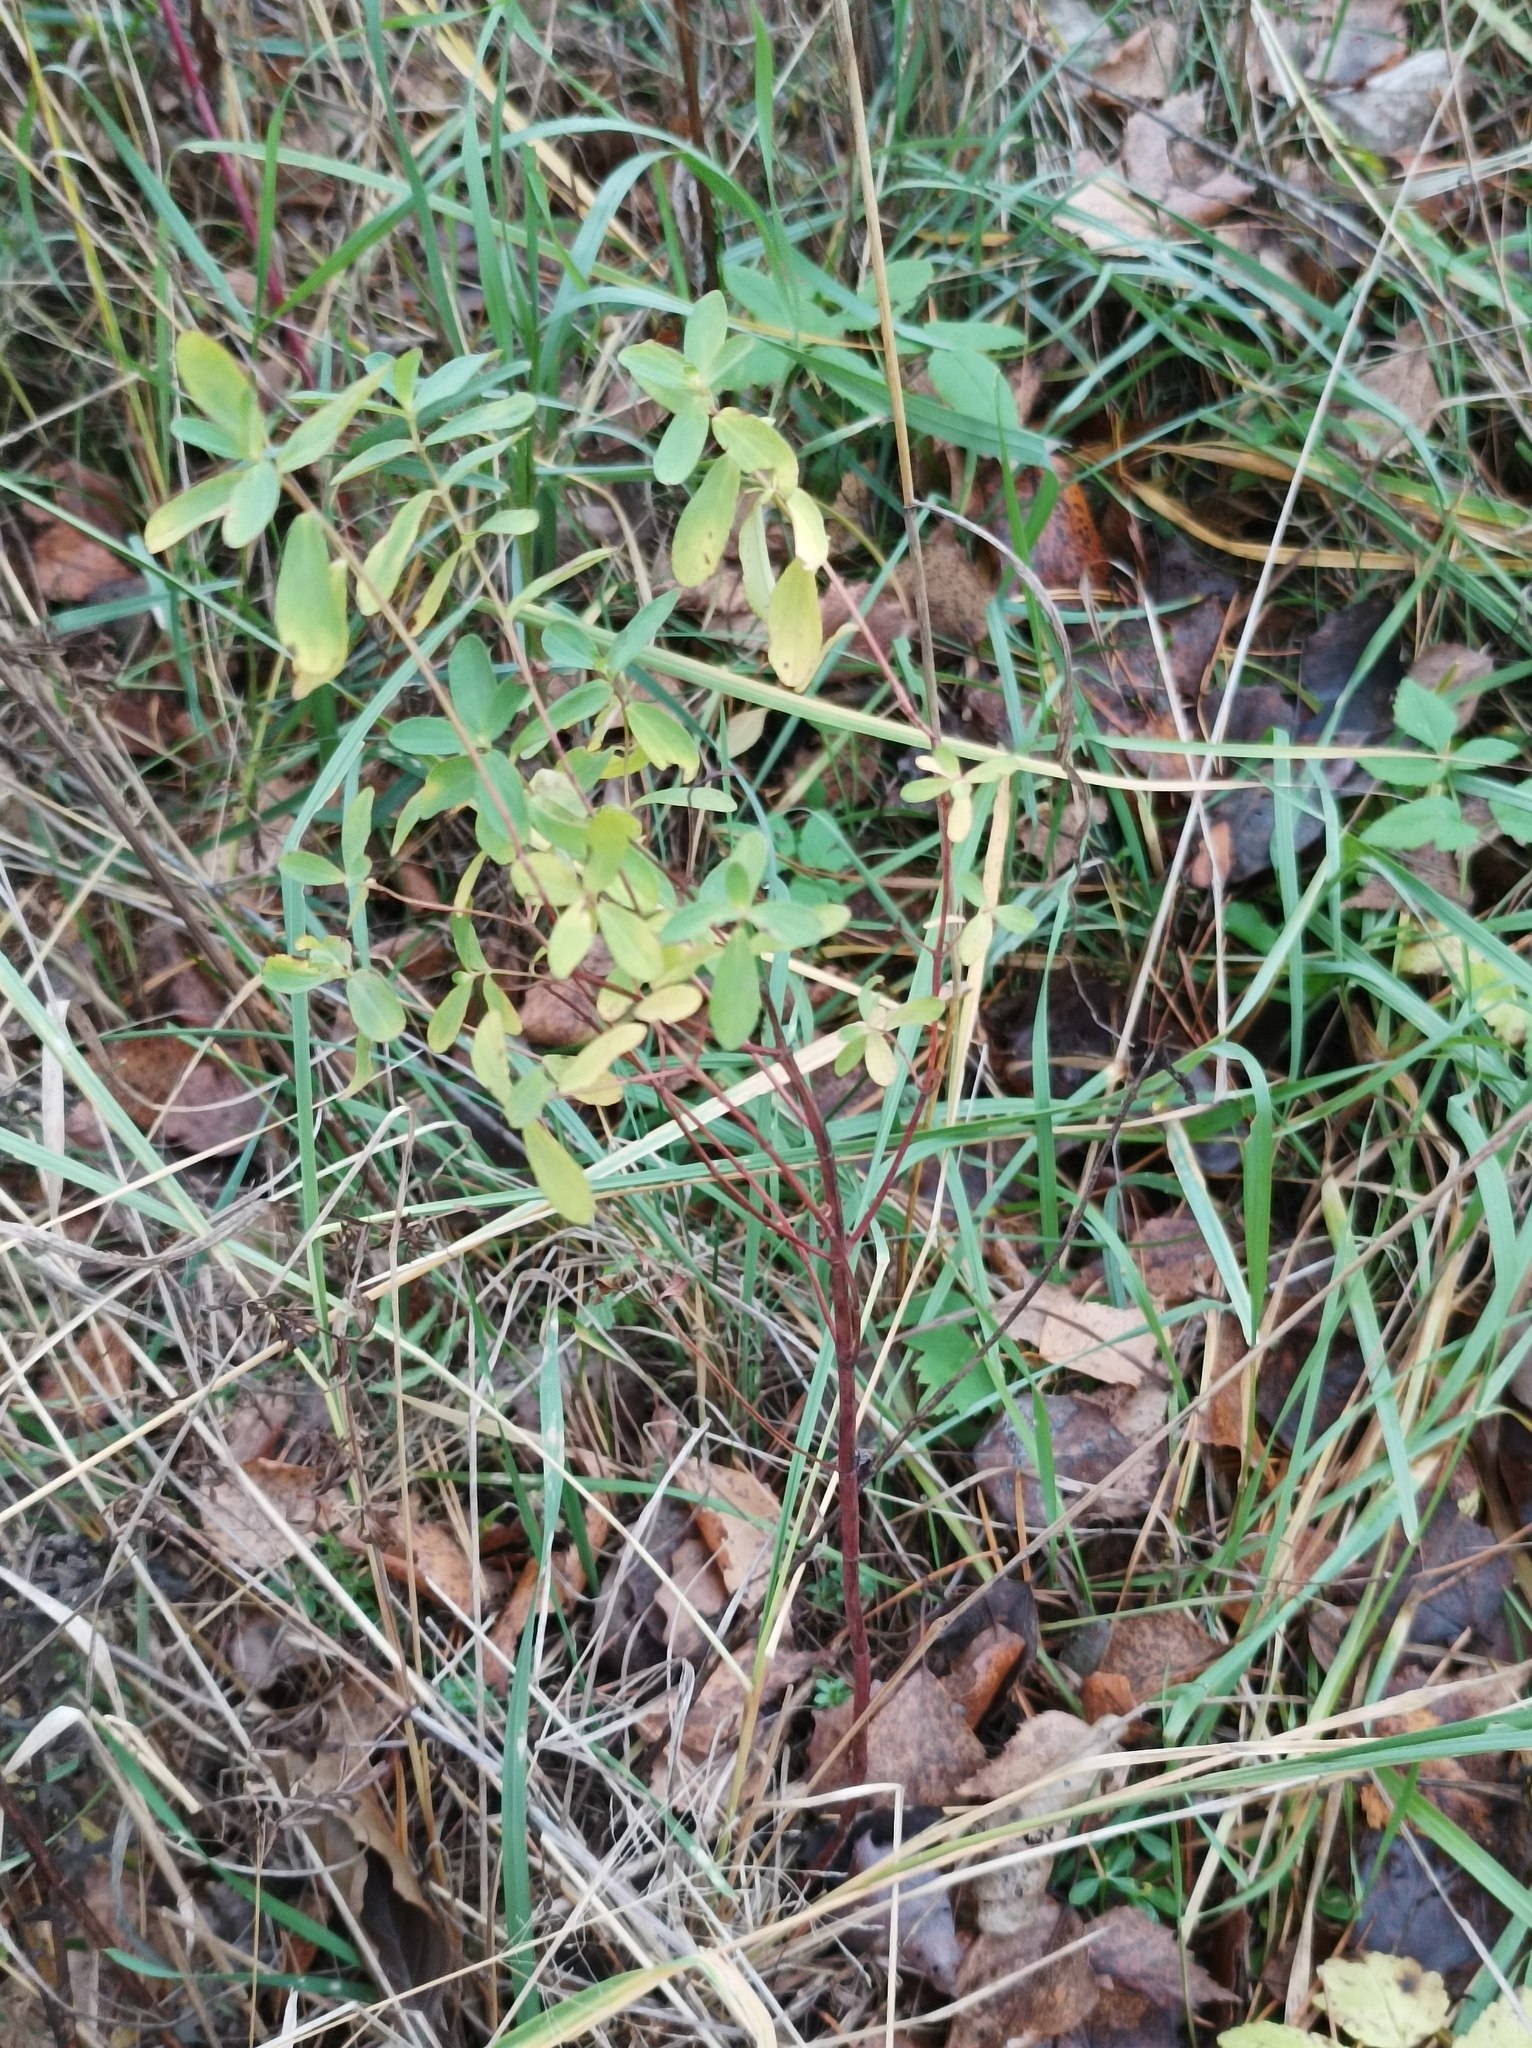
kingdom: Plantae
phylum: Tracheophyta
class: Magnoliopsida
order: Malpighiales
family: Hypericaceae
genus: Hypericum
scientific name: Hypericum perforatum
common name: Common st. johnswort
